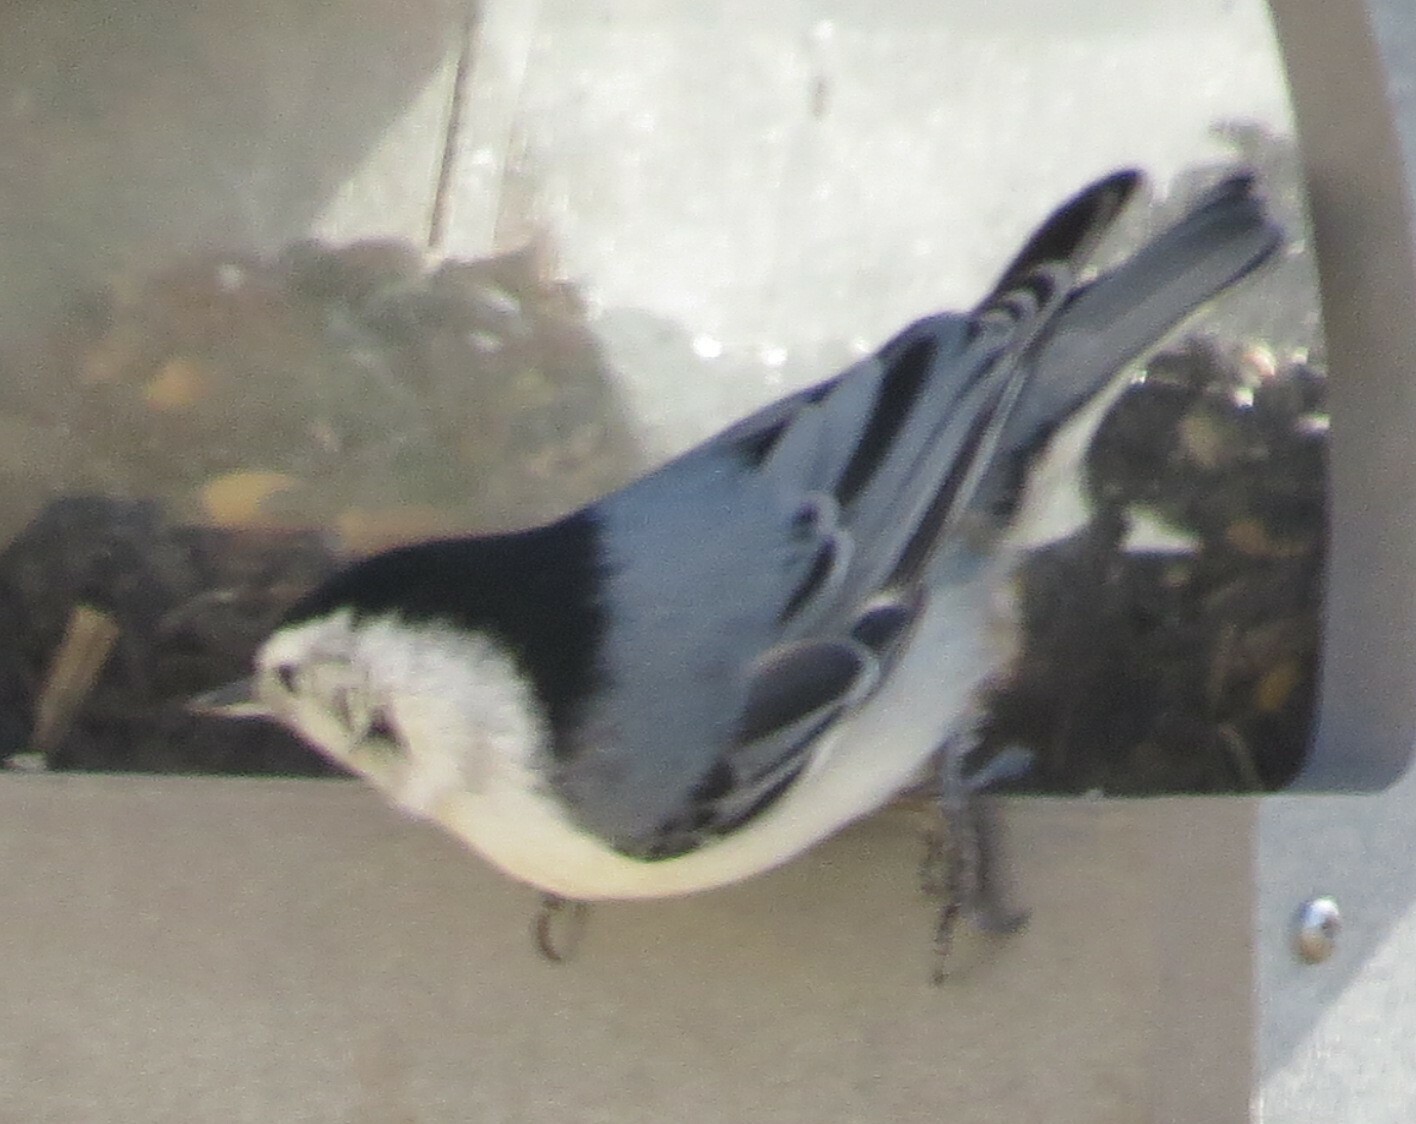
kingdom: Animalia
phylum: Chordata
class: Aves
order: Passeriformes
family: Sittidae
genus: Sitta
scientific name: Sitta carolinensis
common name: White-breasted nuthatch
